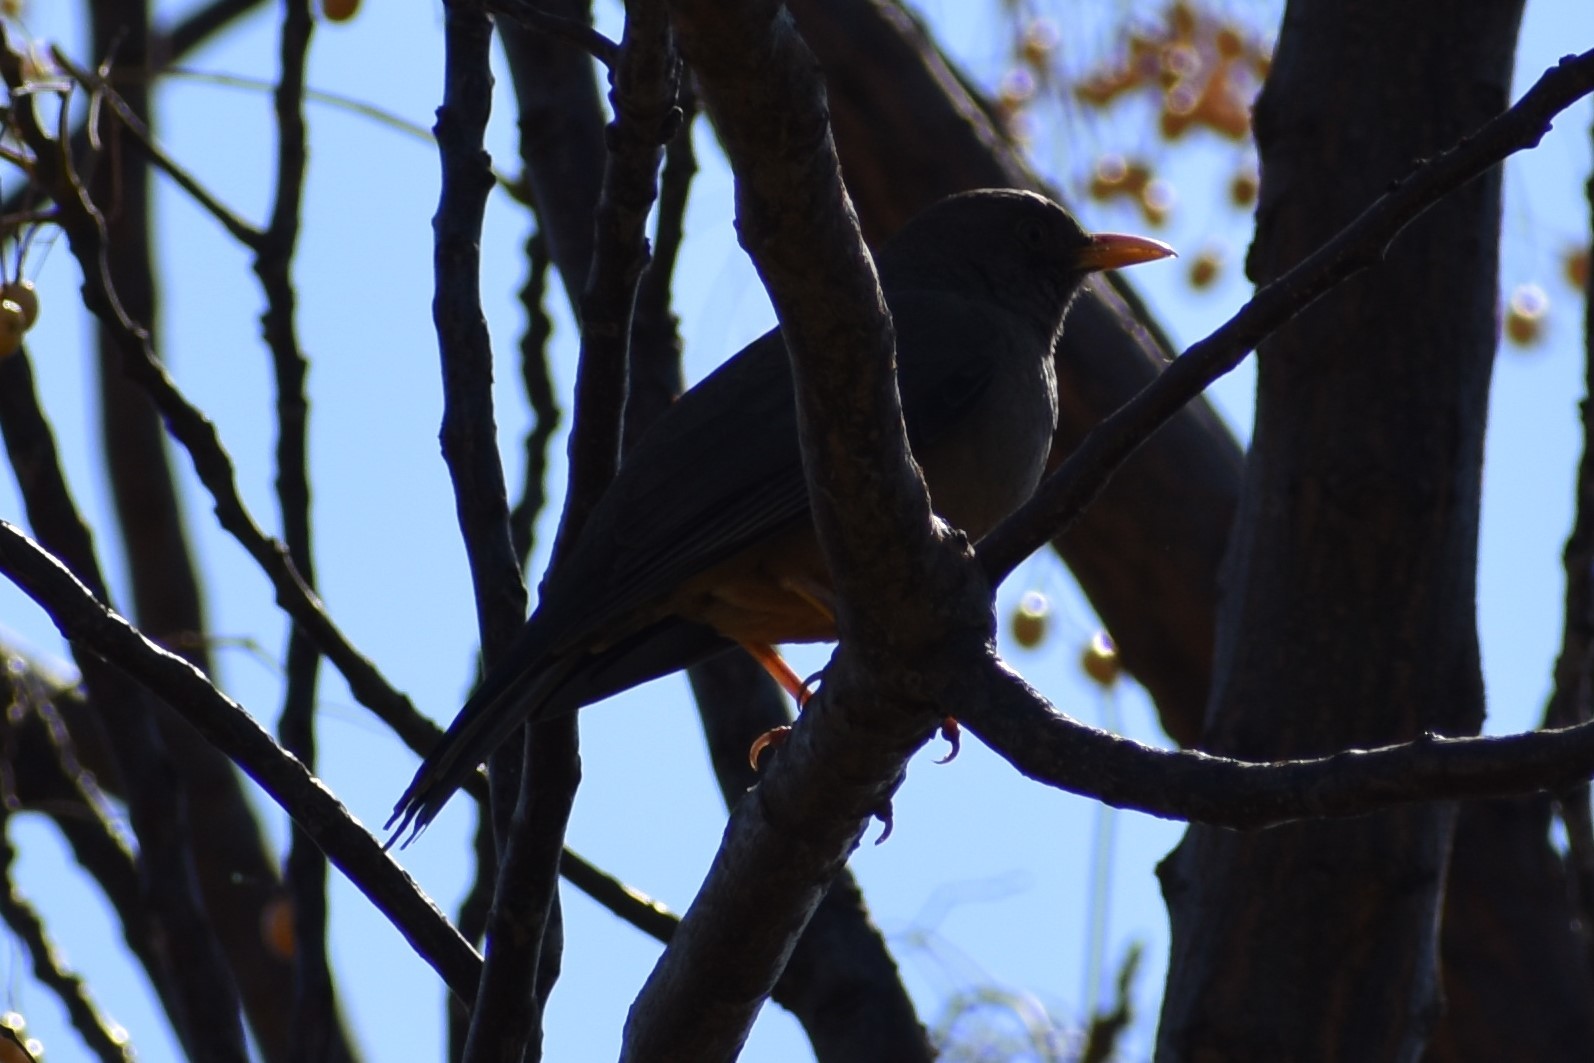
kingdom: Animalia
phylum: Chordata
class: Aves
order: Passeriformes
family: Turdidae
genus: Turdus
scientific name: Turdus smithi
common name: Karoo thrush
